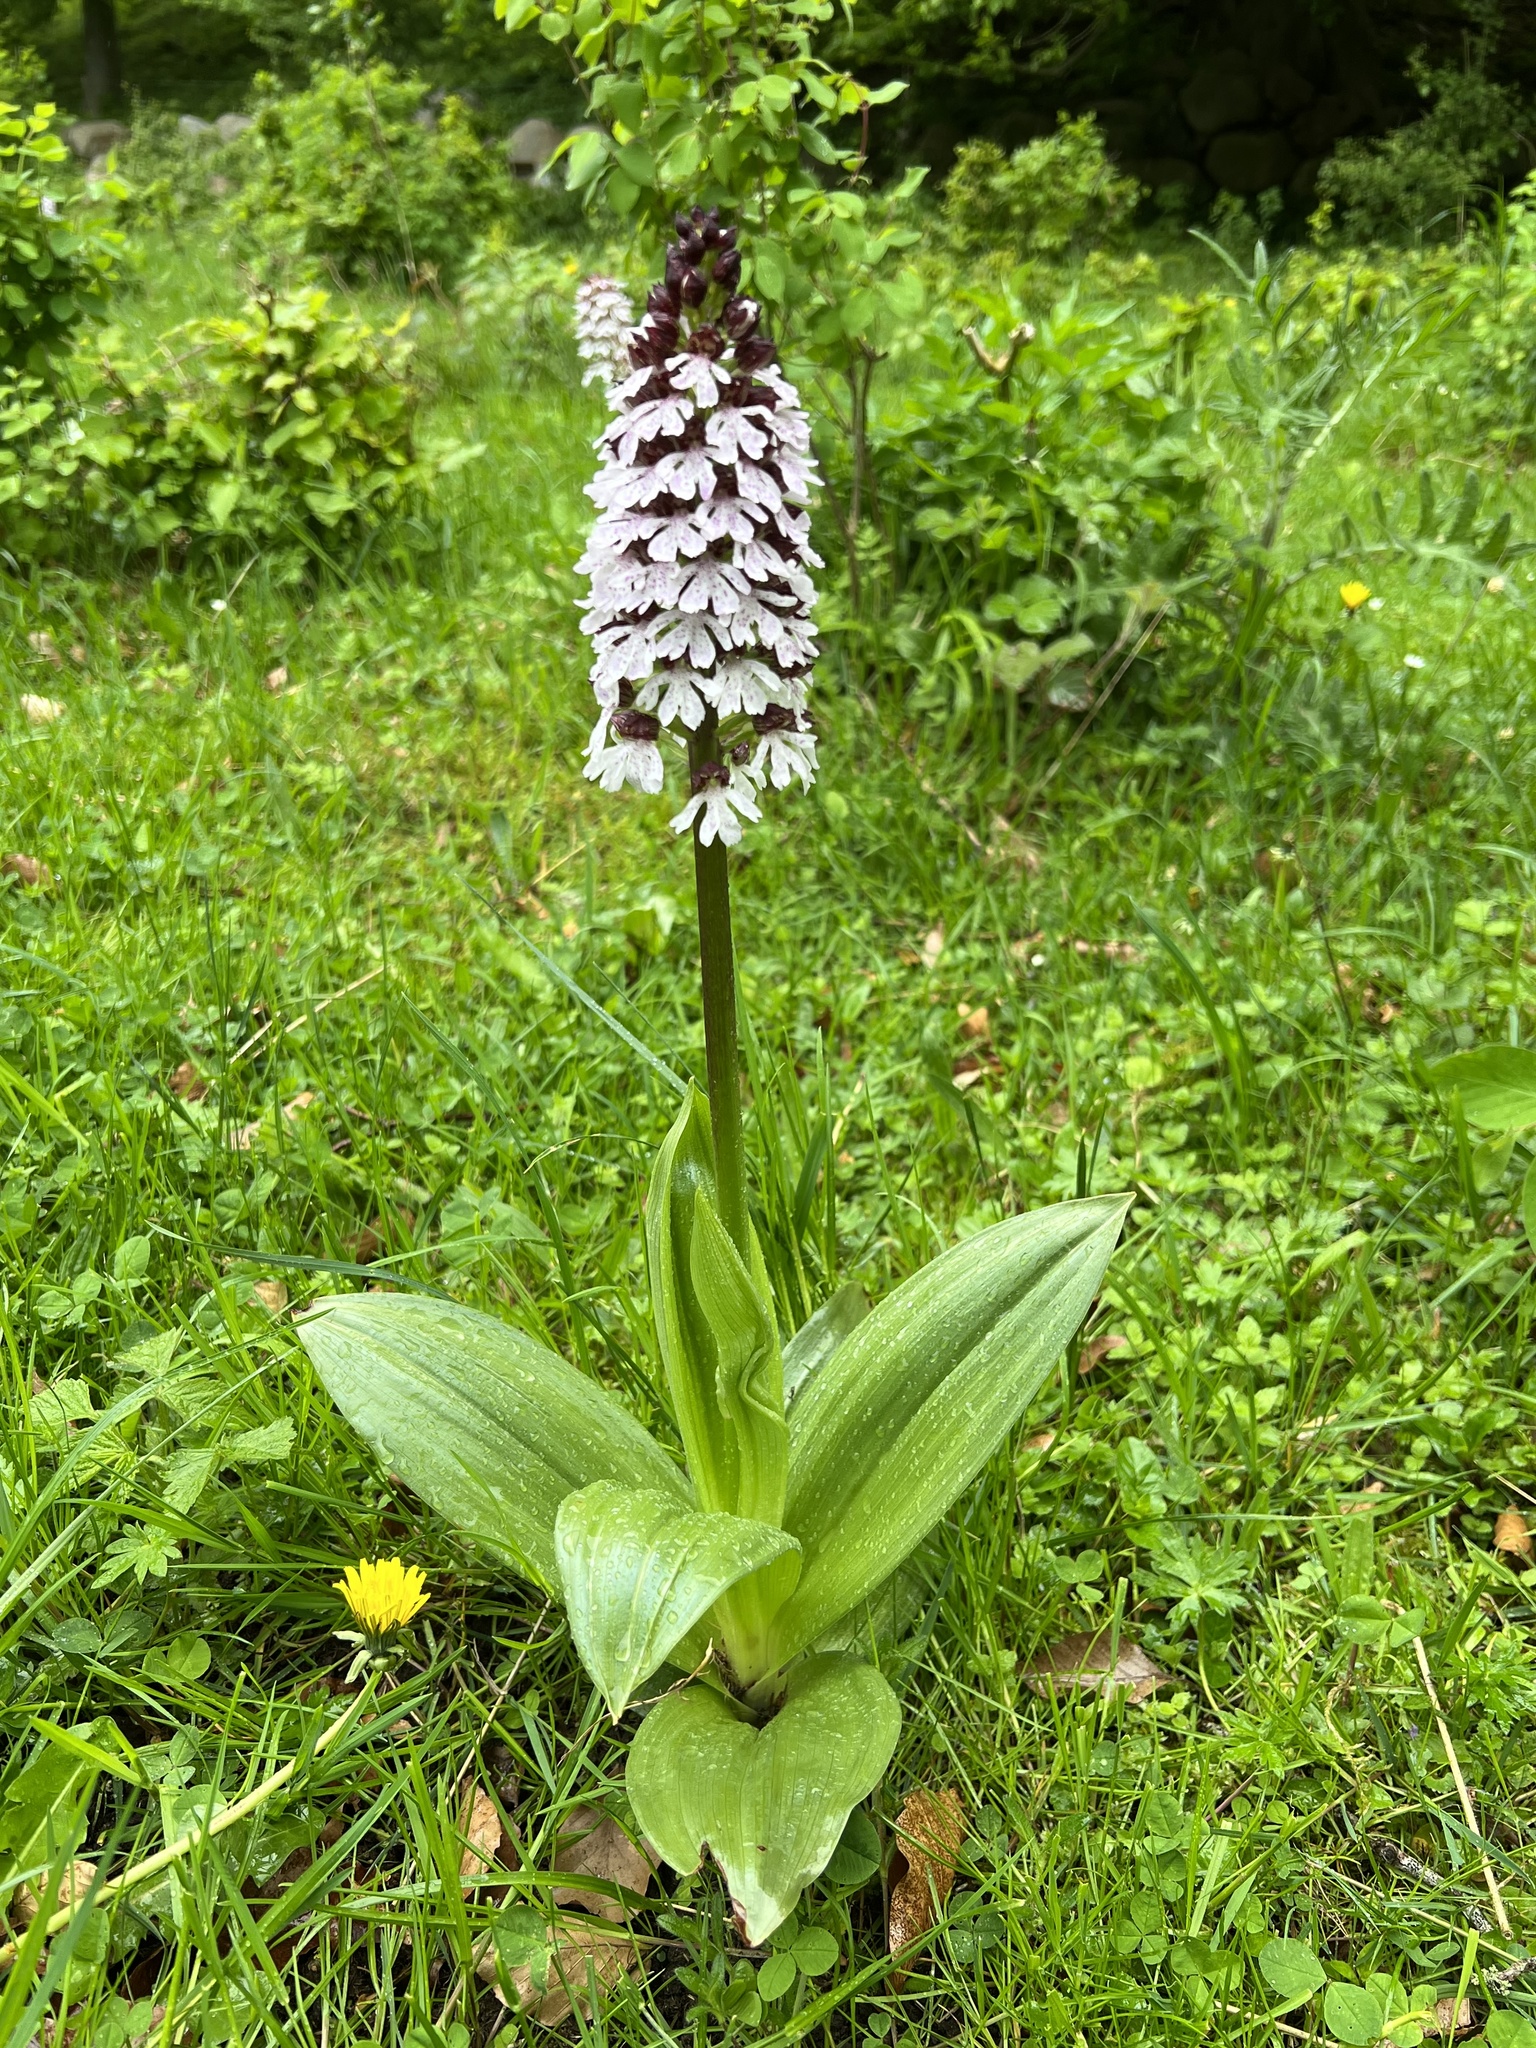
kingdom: Plantae
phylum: Tracheophyta
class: Liliopsida
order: Asparagales
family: Orchidaceae
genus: Orchis
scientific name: Orchis purpurea
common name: Lady orchid
